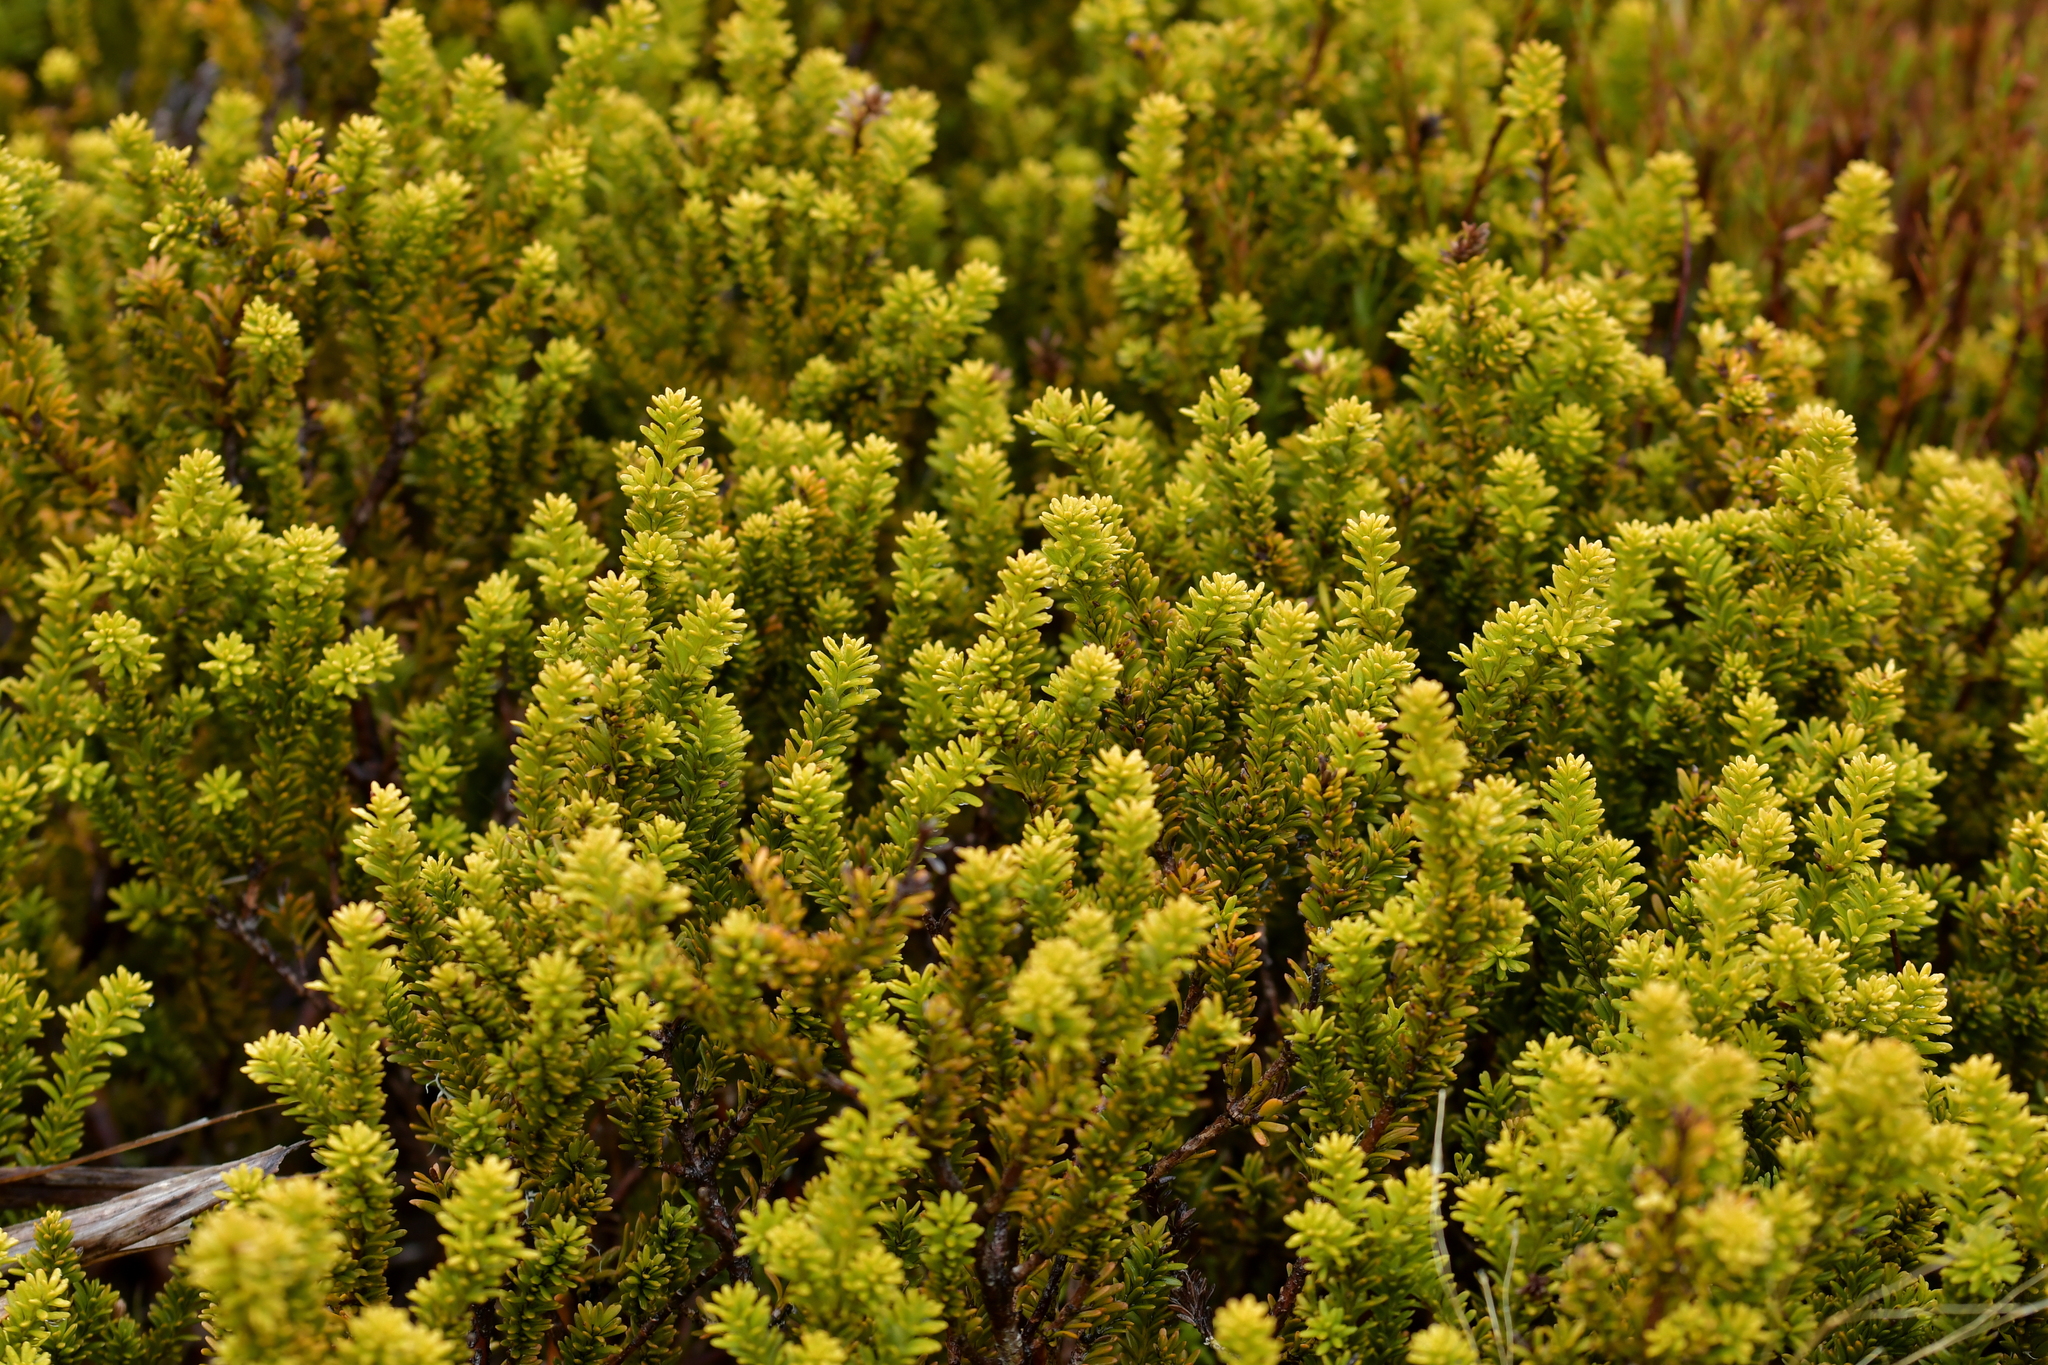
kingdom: Plantae
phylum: Tracheophyta
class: Pinopsida
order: Pinales
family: Podocarpaceae
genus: Podocarpus
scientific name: Podocarpus nivalis
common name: Alpine totara
